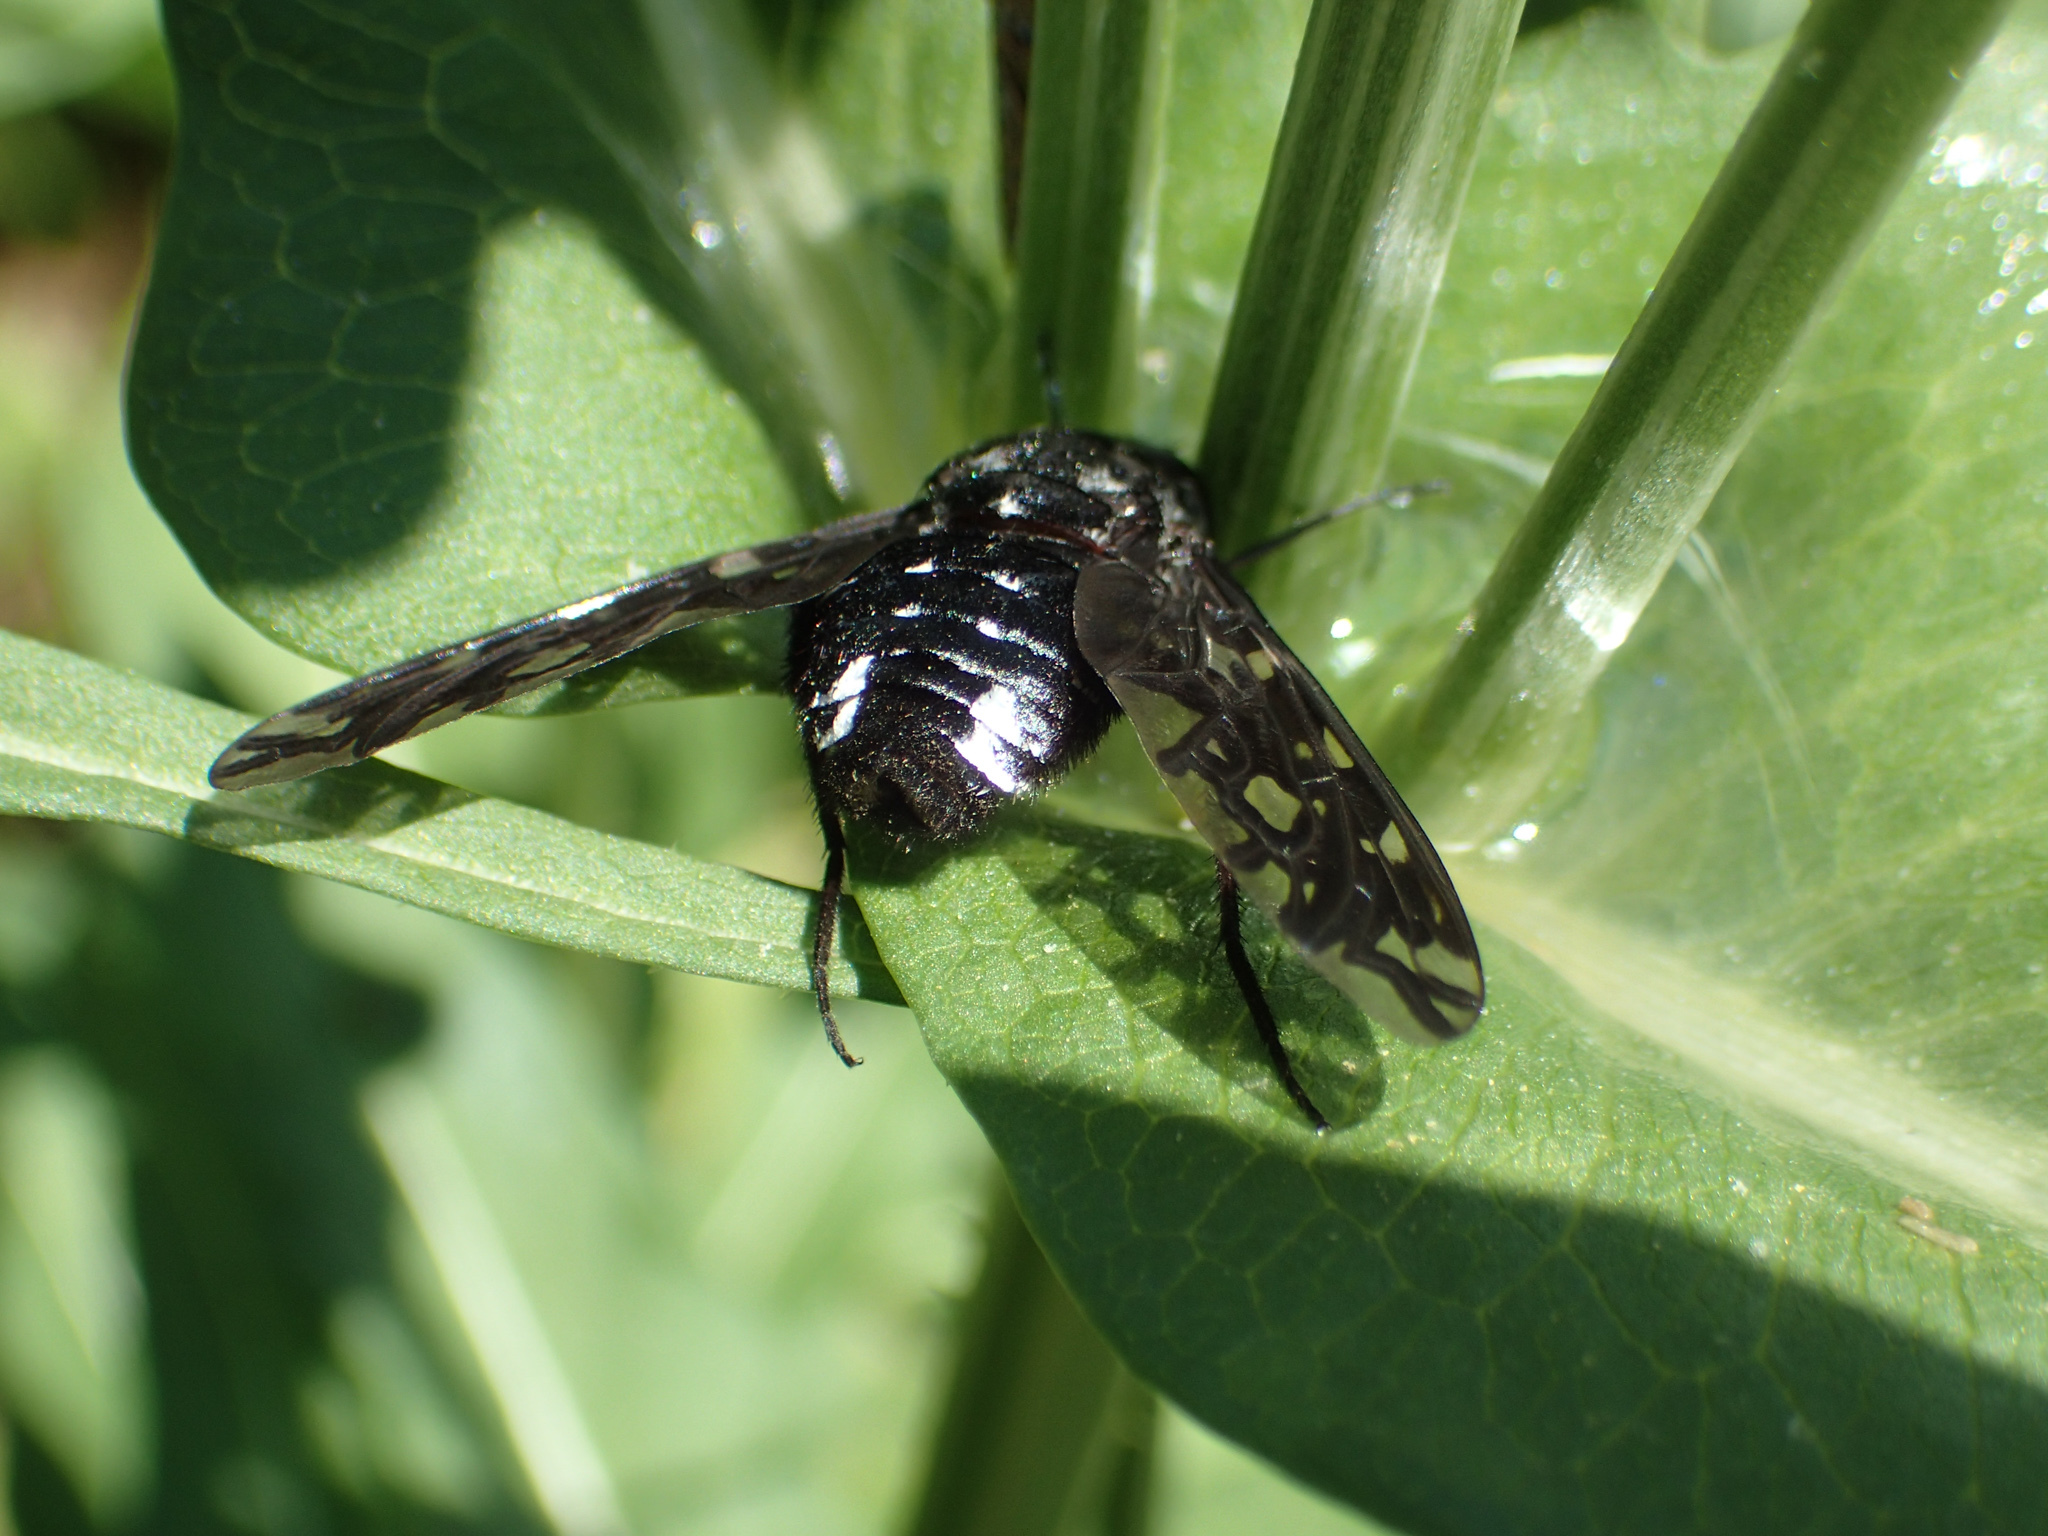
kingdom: Animalia
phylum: Arthropoda
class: Insecta
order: Diptera
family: Bombyliidae
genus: Xenox
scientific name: Xenox tigrinus
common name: Tiger bee fly
